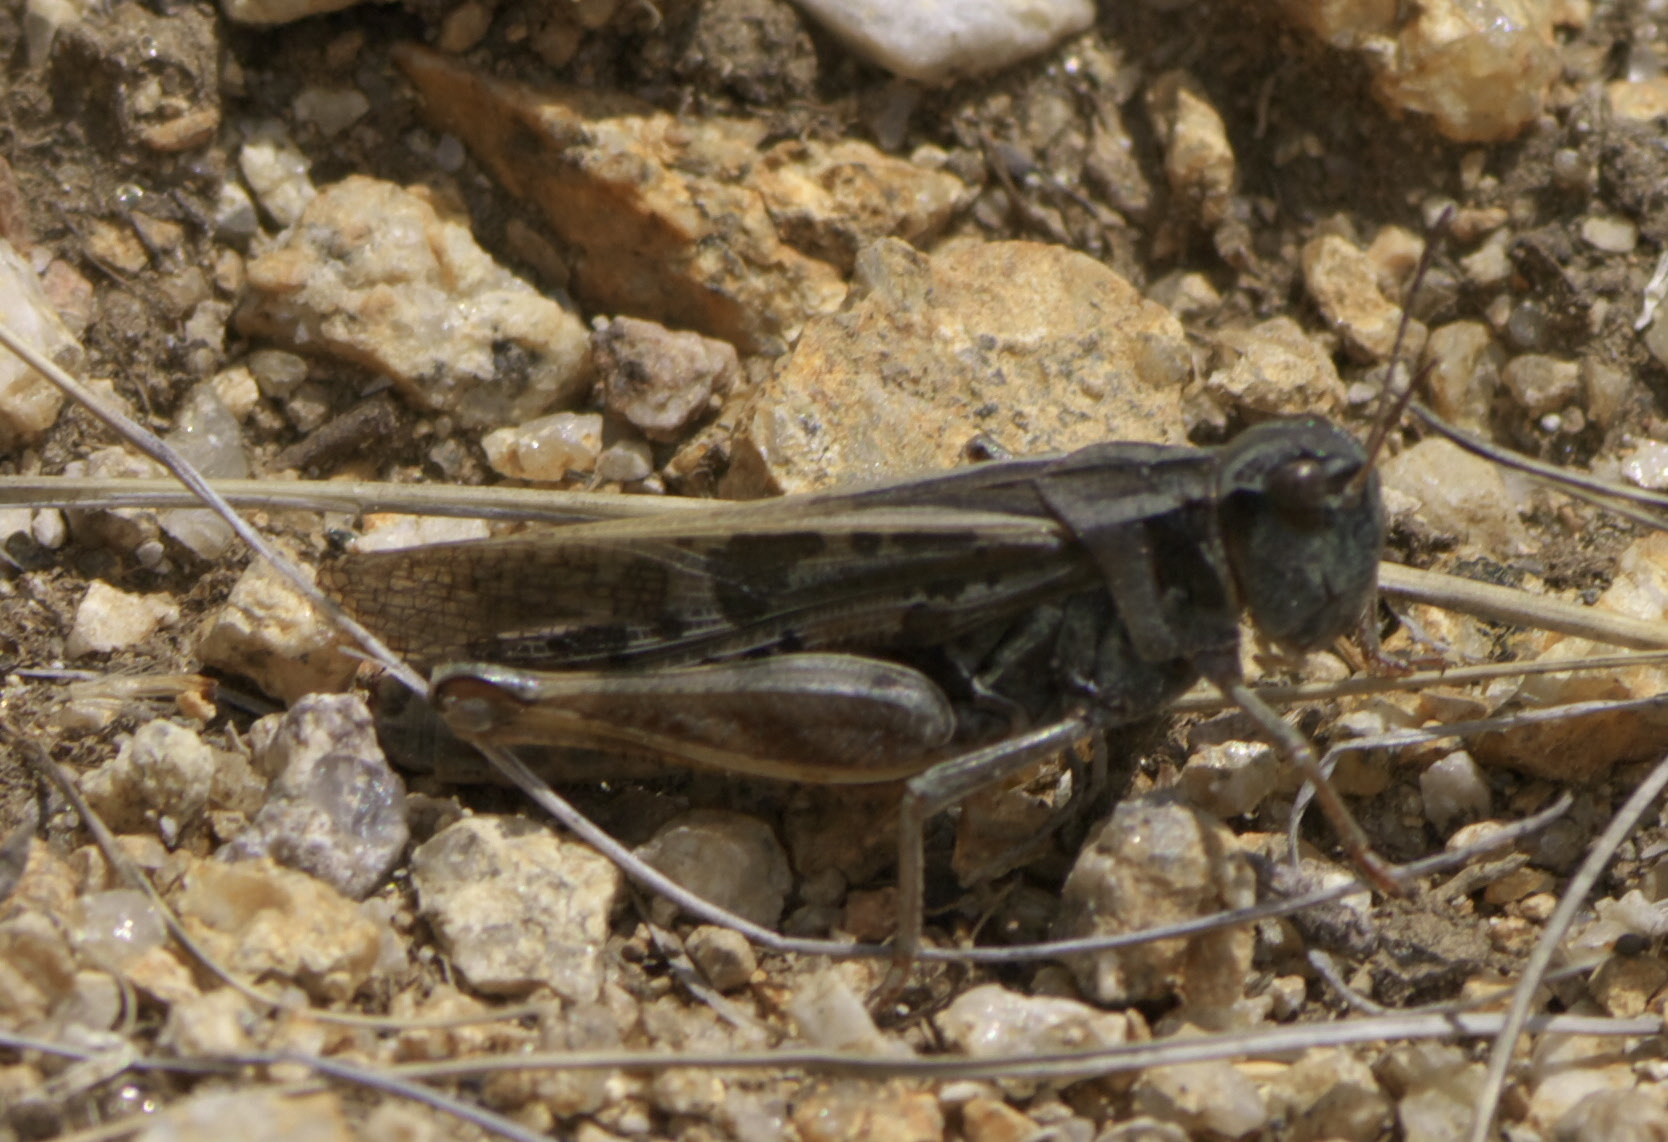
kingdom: Animalia
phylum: Arthropoda
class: Insecta
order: Orthoptera
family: Acrididae
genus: Camnula
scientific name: Camnula pellucida
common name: Clear-winged grasshopper
